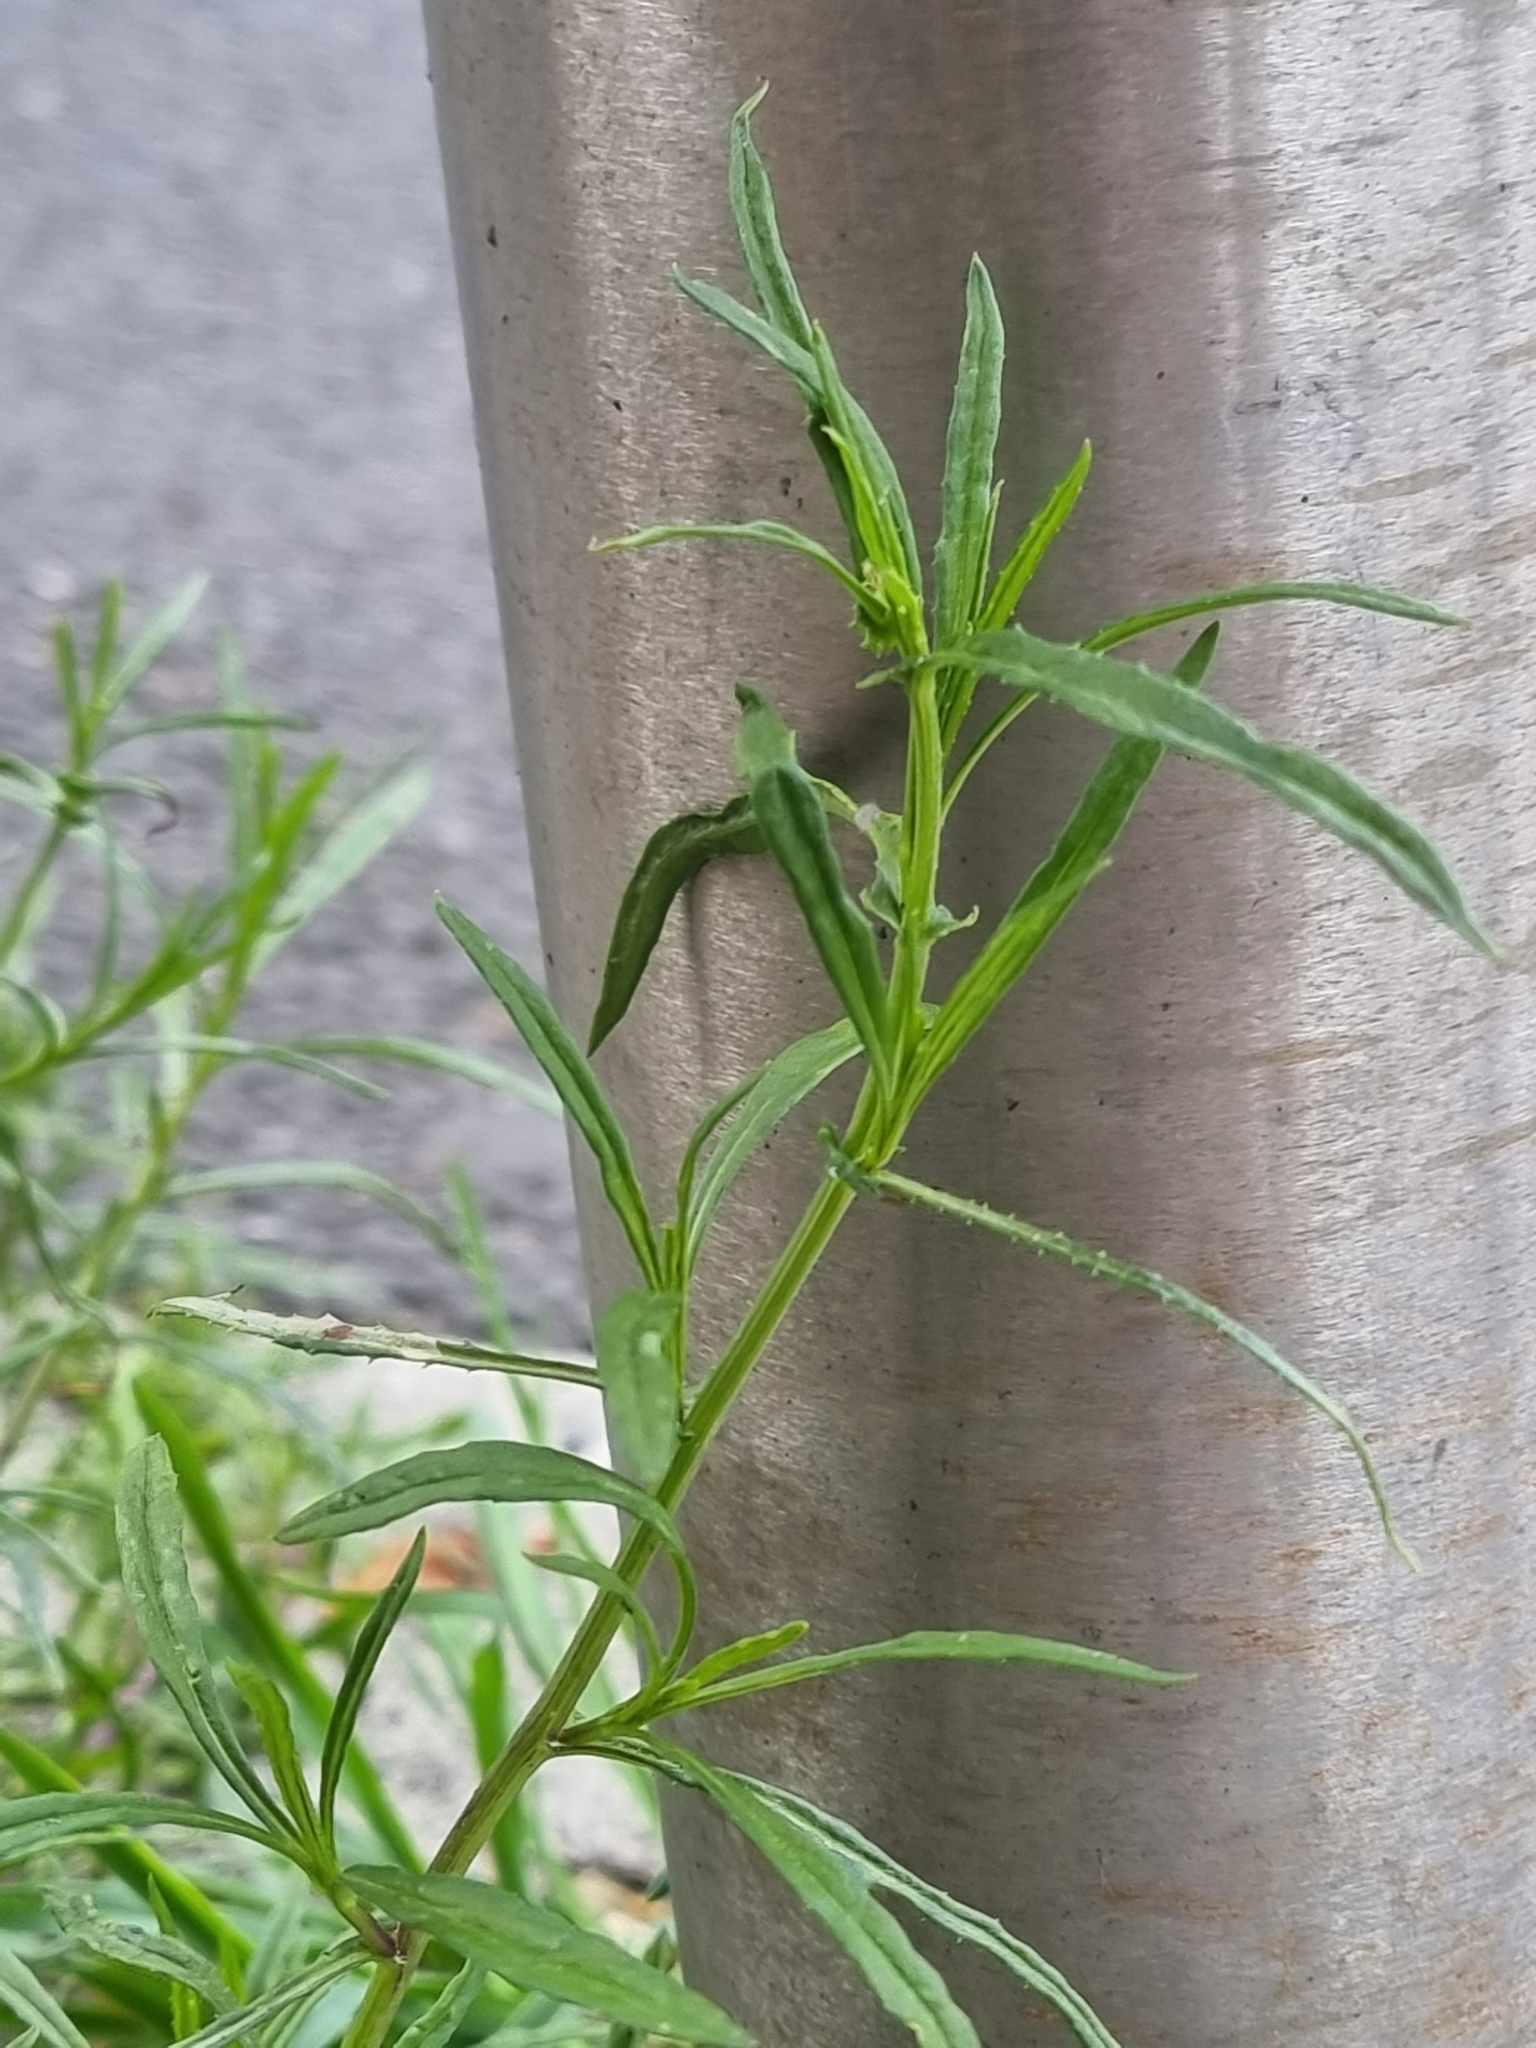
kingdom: Plantae
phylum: Tracheophyta
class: Magnoliopsida
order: Asterales
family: Asteraceae
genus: Senecio
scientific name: Senecio inaequidens
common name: Narrow-leaved ragwort
